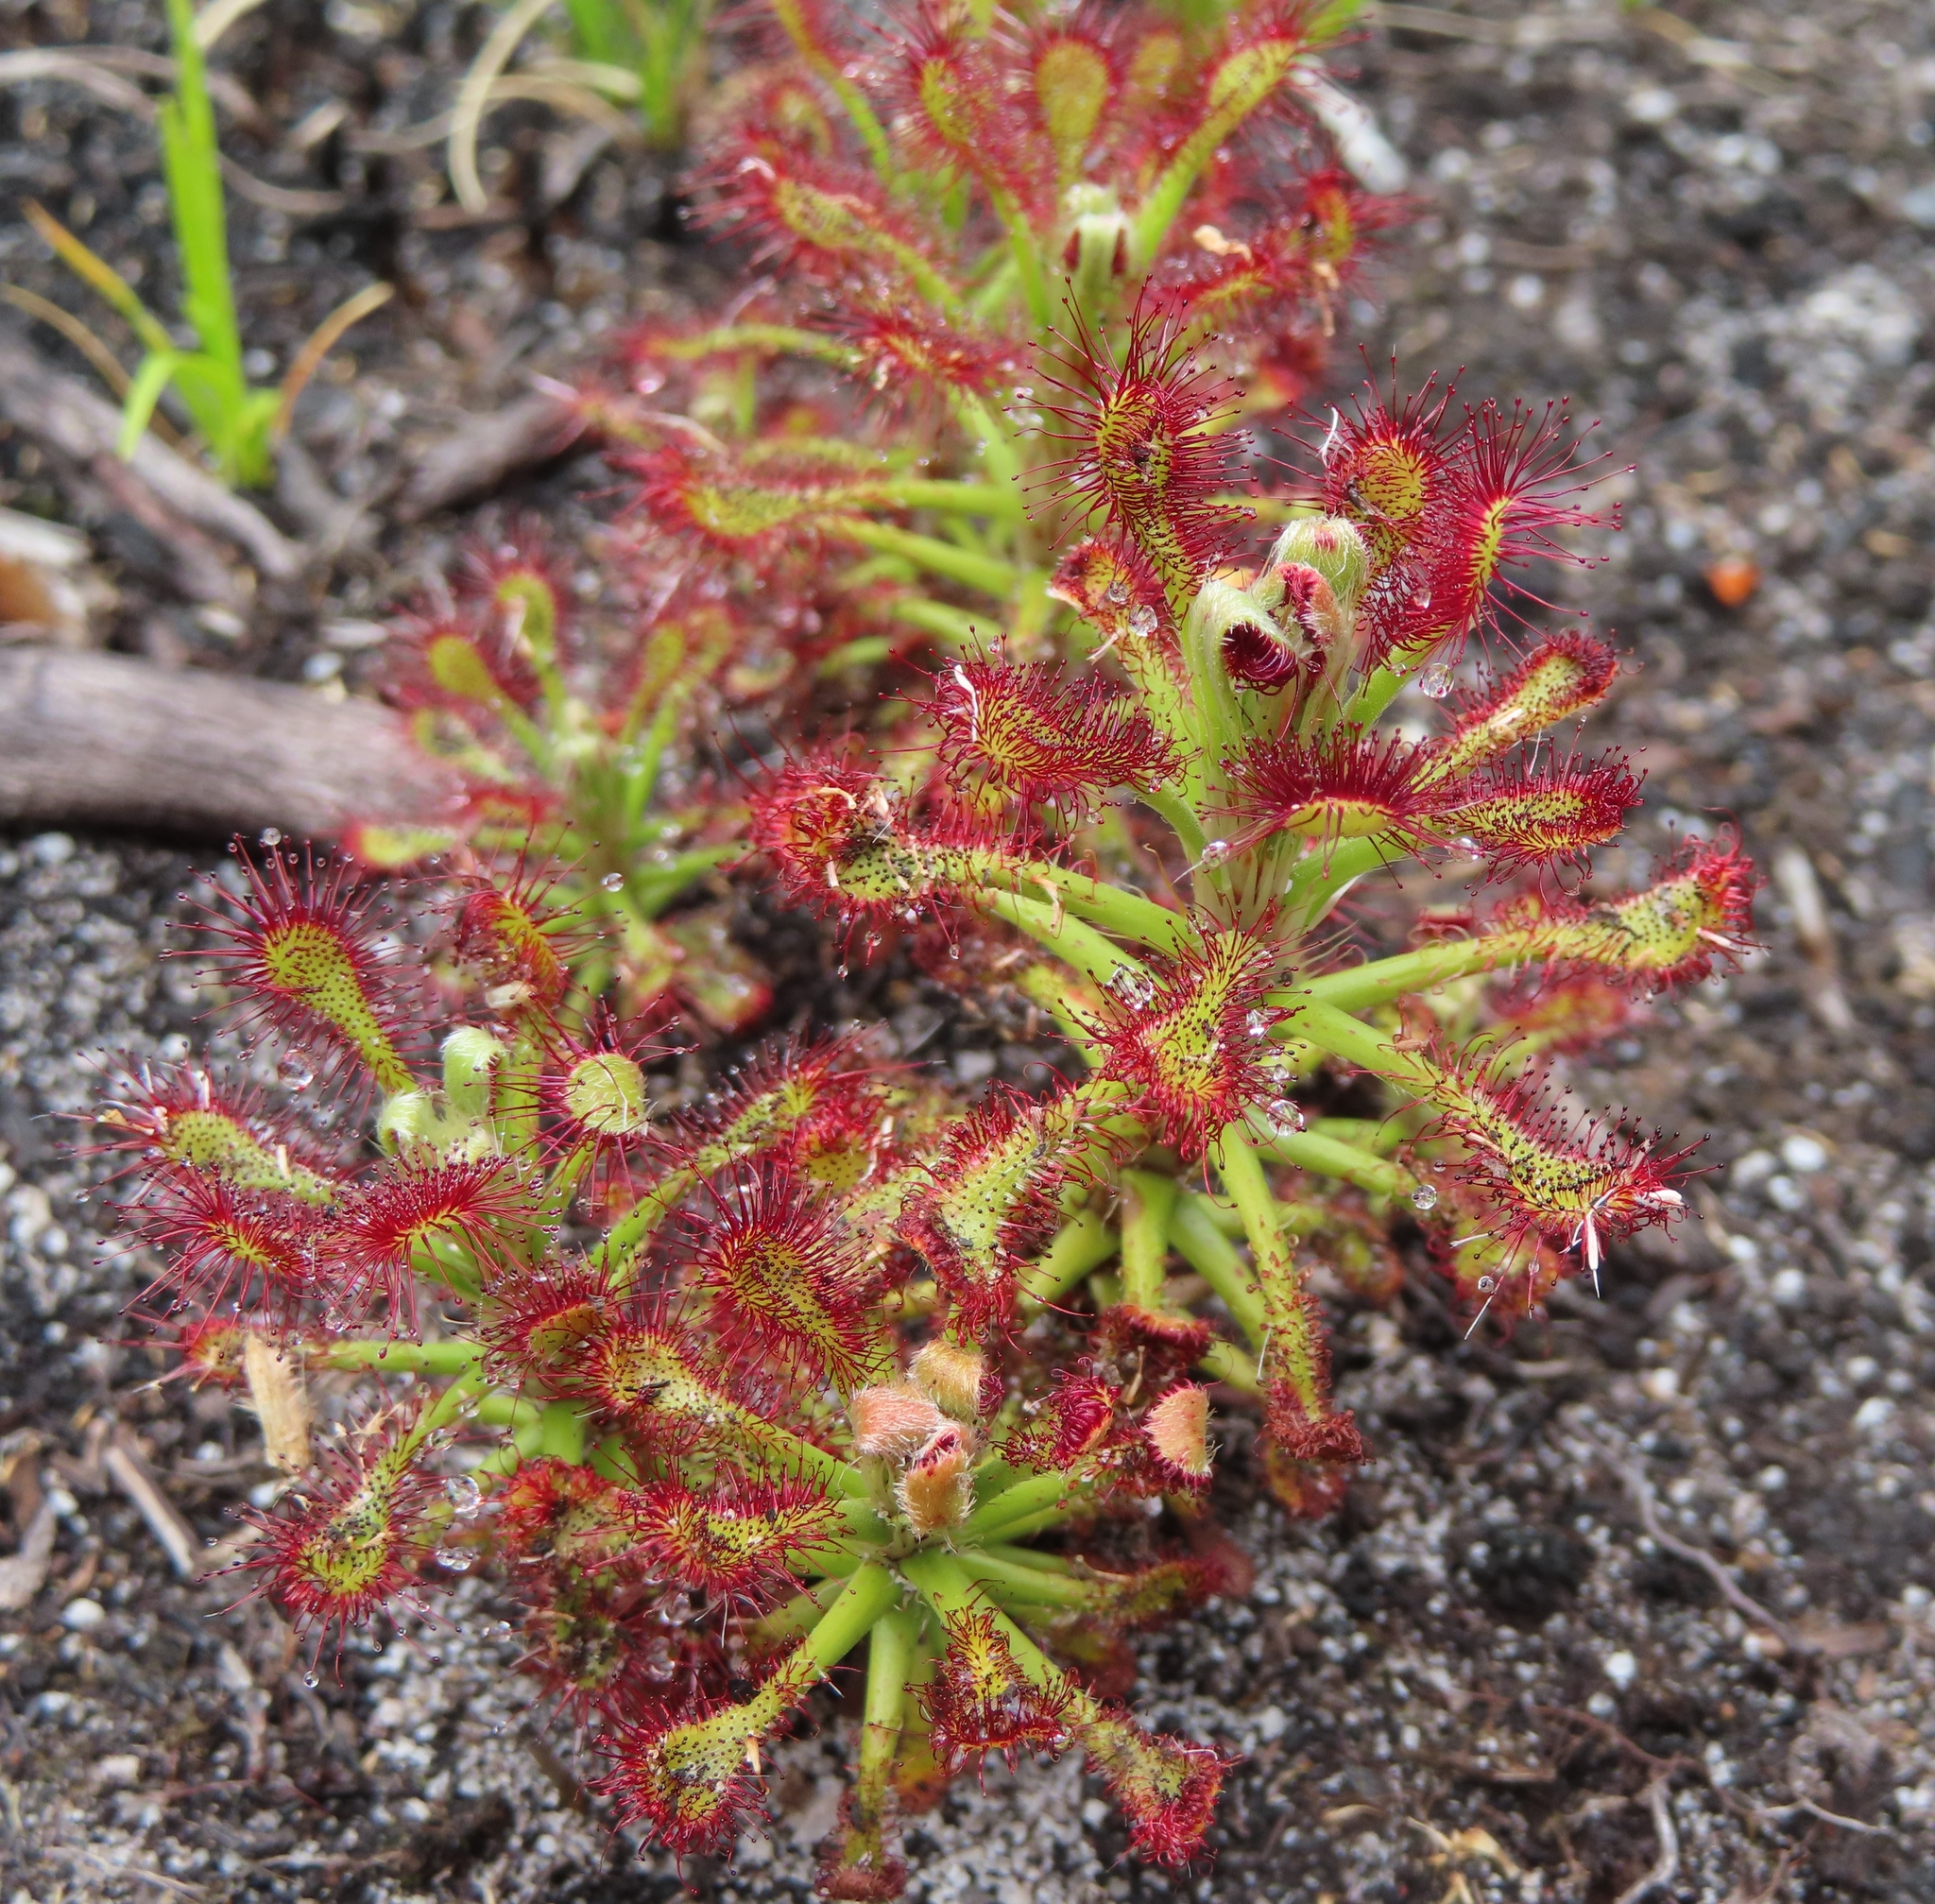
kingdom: Plantae
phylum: Tracheophyta
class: Magnoliopsida
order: Caryophyllales
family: Droseraceae
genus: Drosera
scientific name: Drosera glabripes
